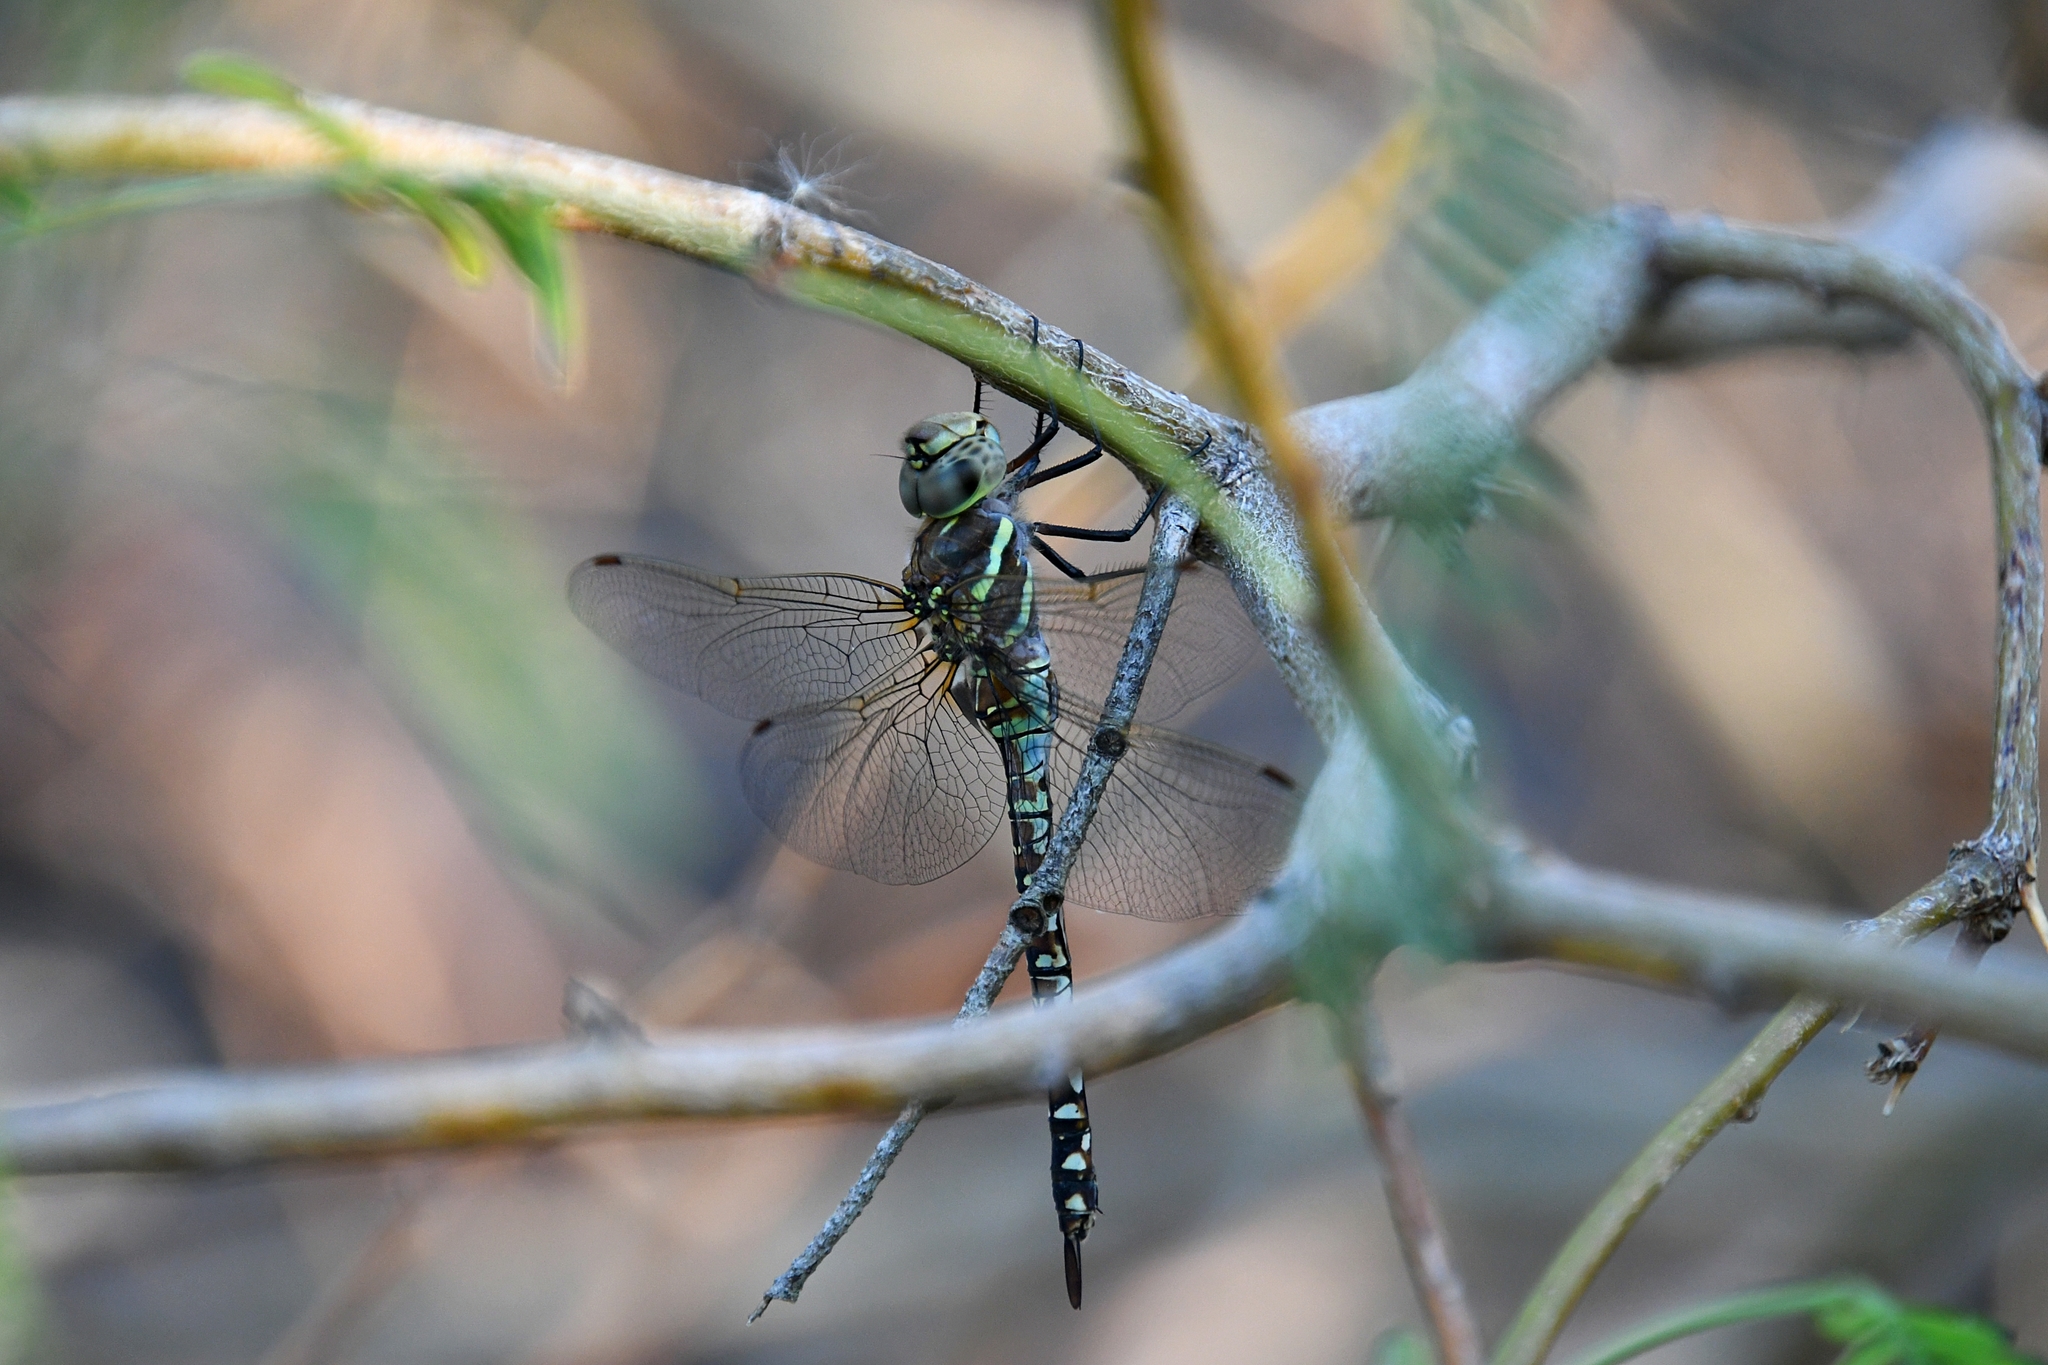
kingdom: Animalia
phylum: Arthropoda
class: Insecta
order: Odonata
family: Aeshnidae
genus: Rhionaeschna
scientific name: Rhionaeschna multicolor
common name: Blue-eyed darner
